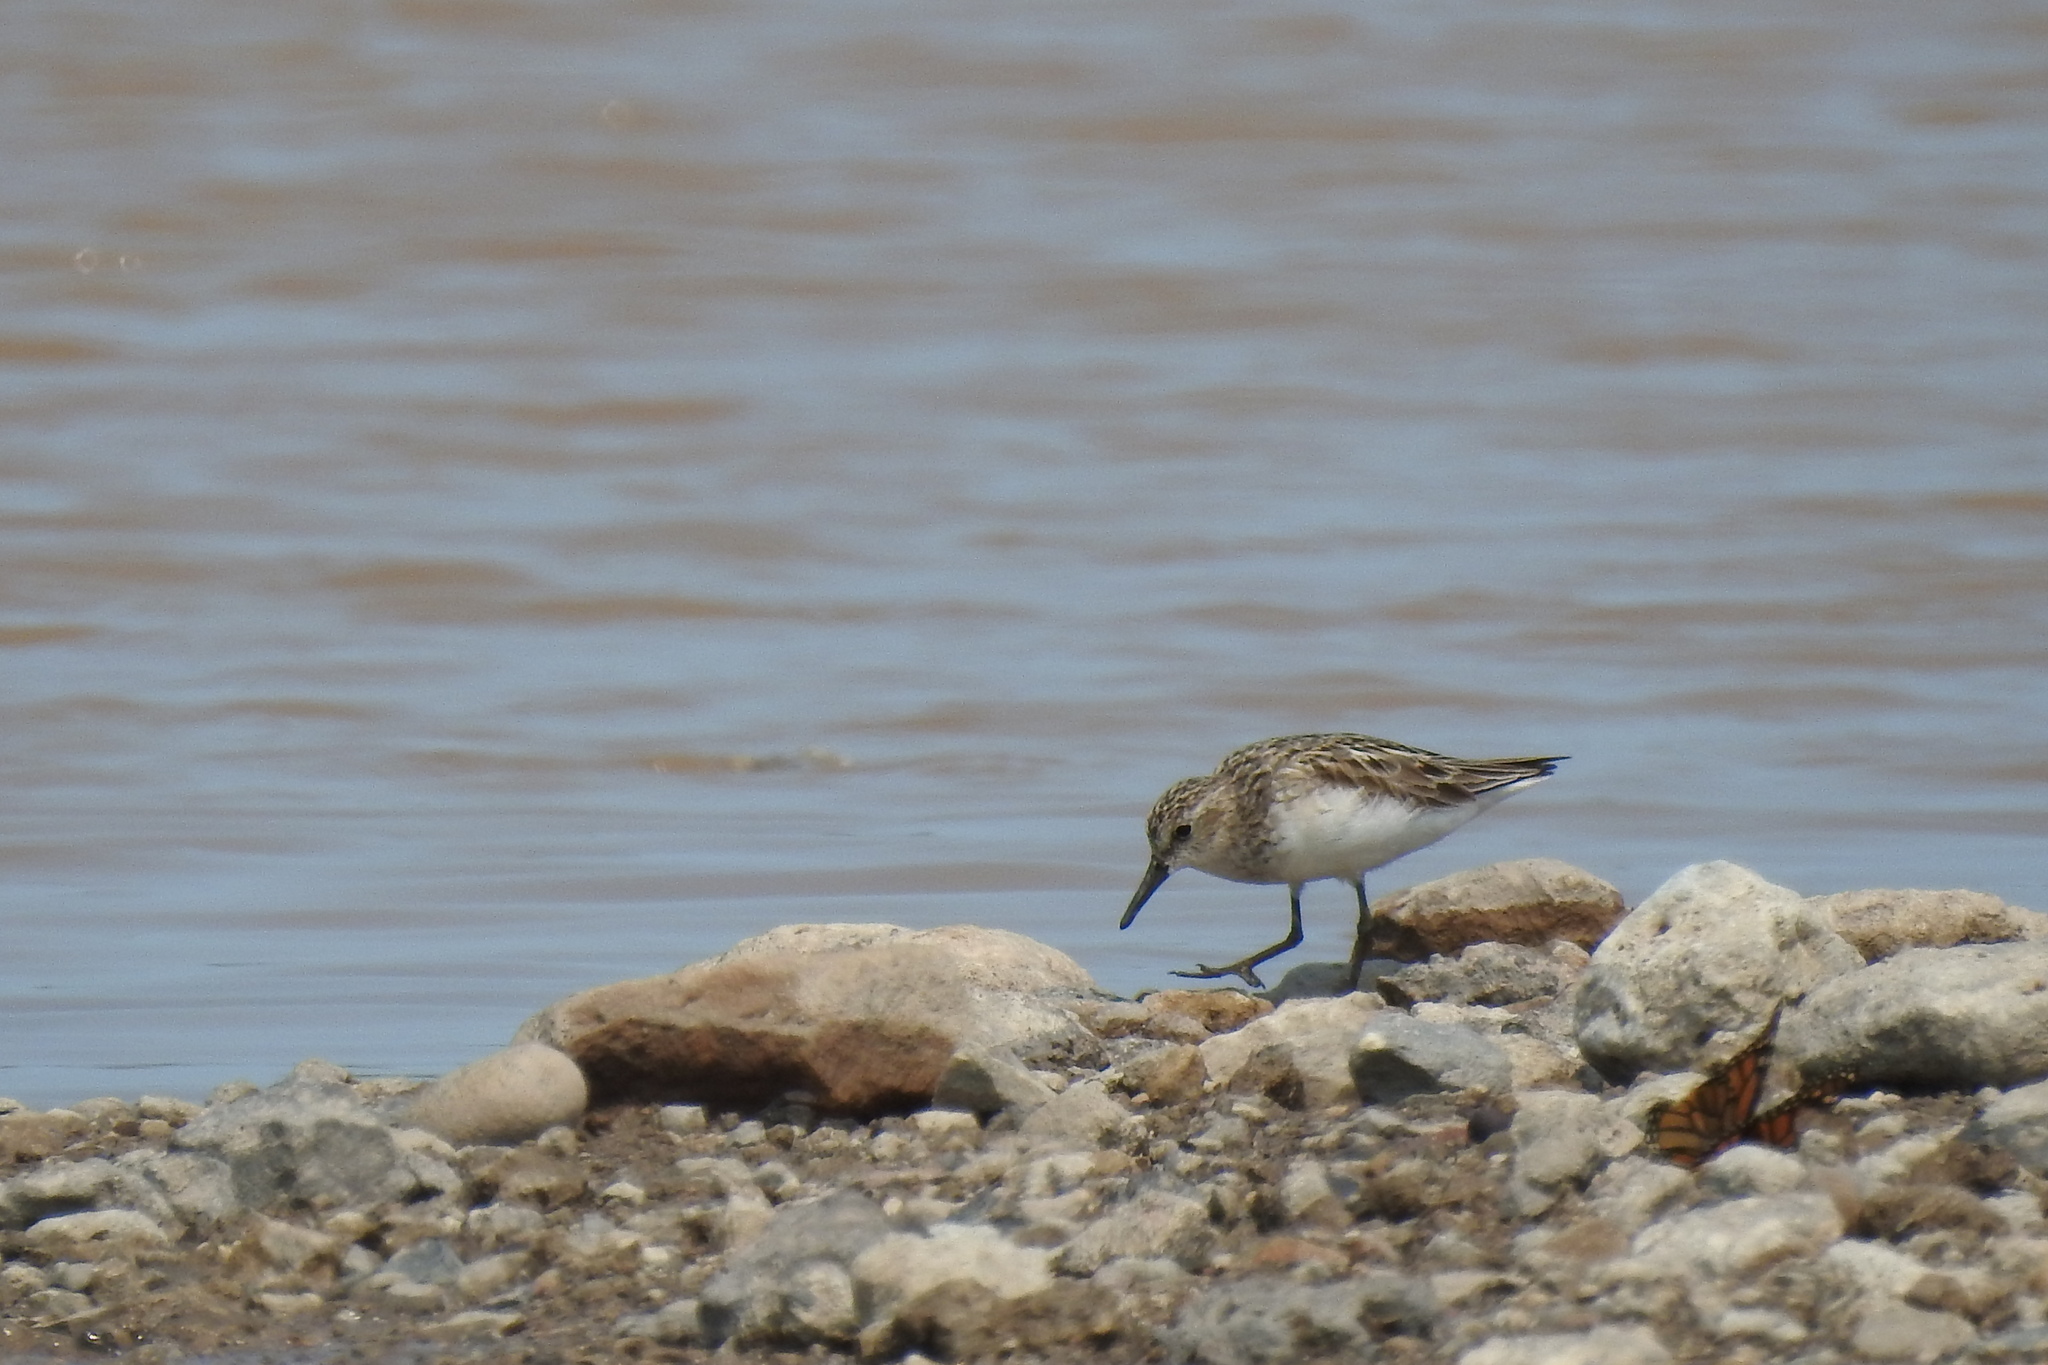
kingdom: Animalia
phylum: Chordata
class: Aves
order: Charadriiformes
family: Scolopacidae
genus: Calidris
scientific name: Calidris pusilla
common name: Semipalmated sandpiper
